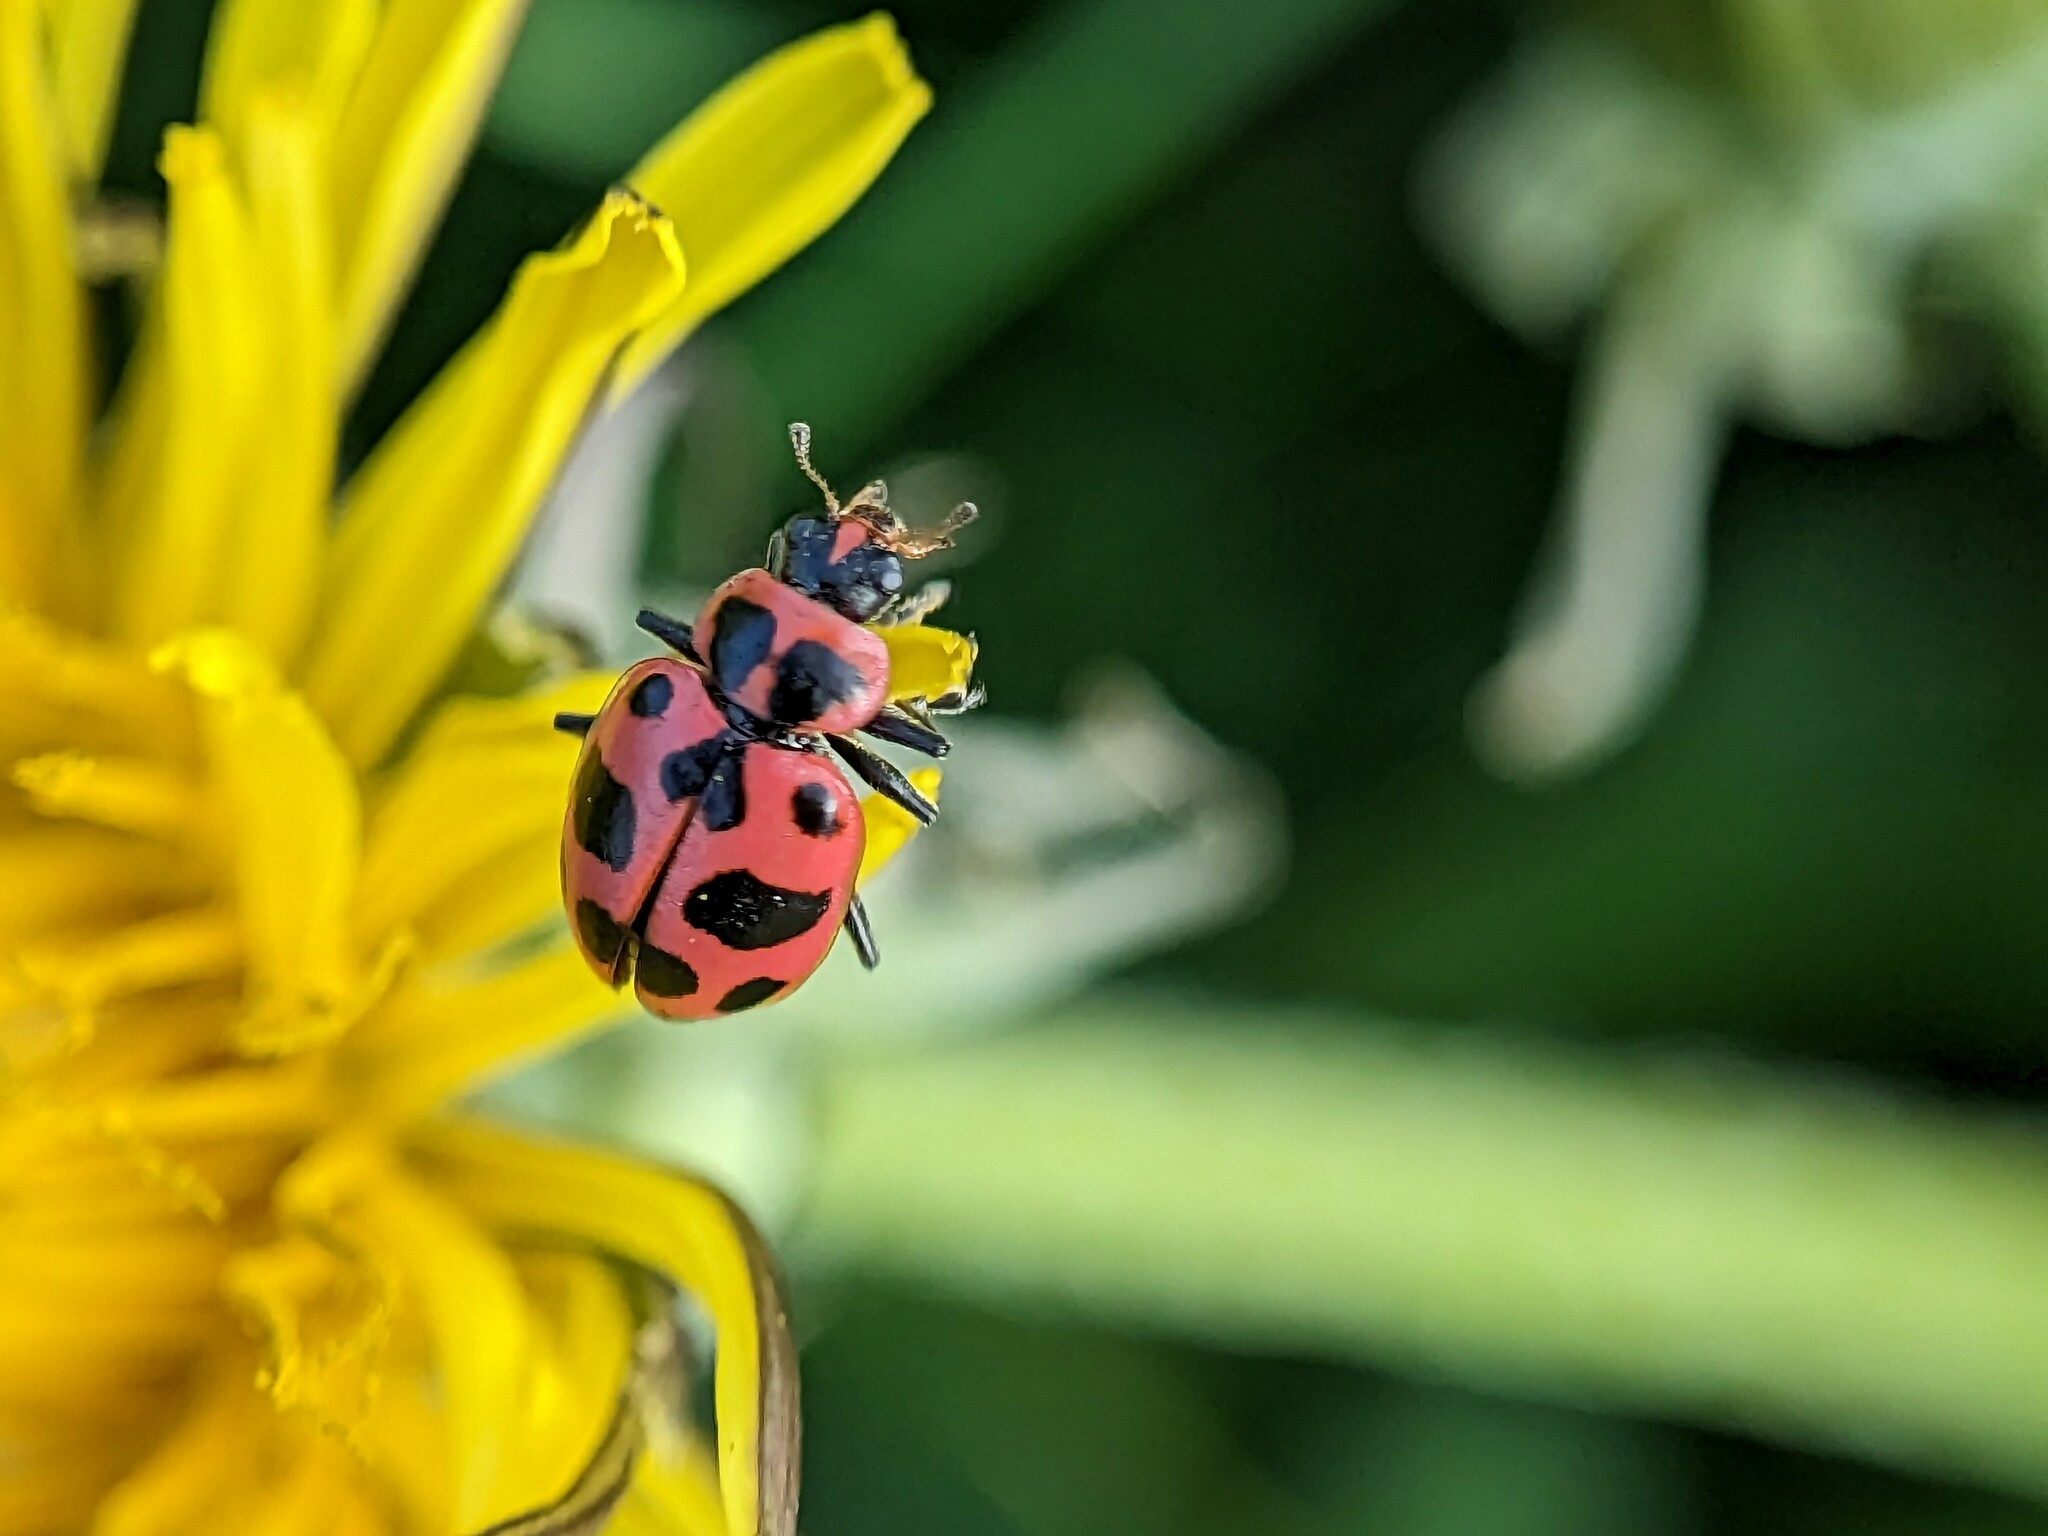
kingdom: Animalia
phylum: Arthropoda
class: Insecta
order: Coleoptera
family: Coccinellidae
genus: Coleomegilla
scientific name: Coleomegilla maculata
